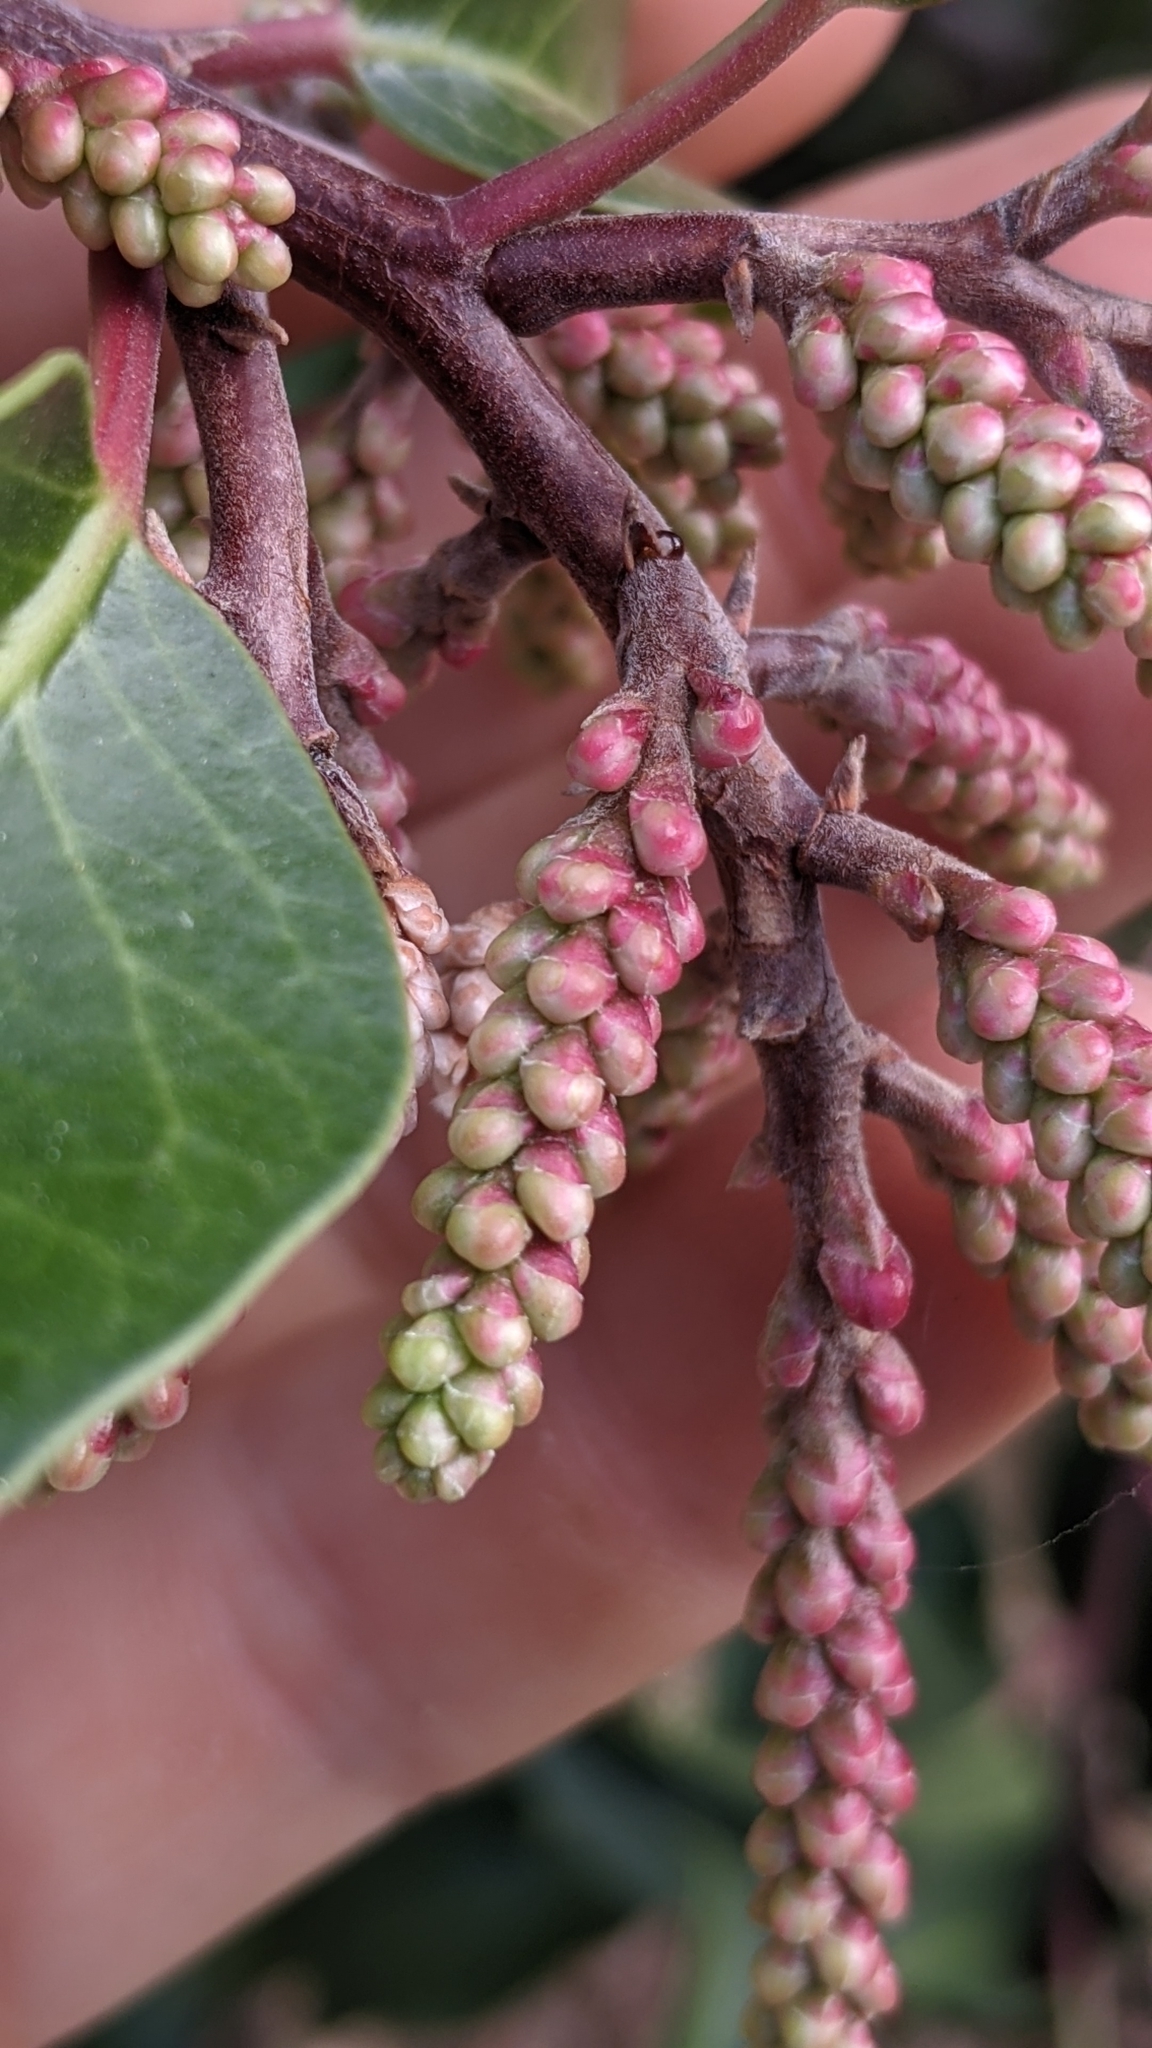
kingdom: Plantae
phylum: Tracheophyta
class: Magnoliopsida
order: Sapindales
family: Anacardiaceae
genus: Rhus
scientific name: Rhus ovata
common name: Sugar sumac
